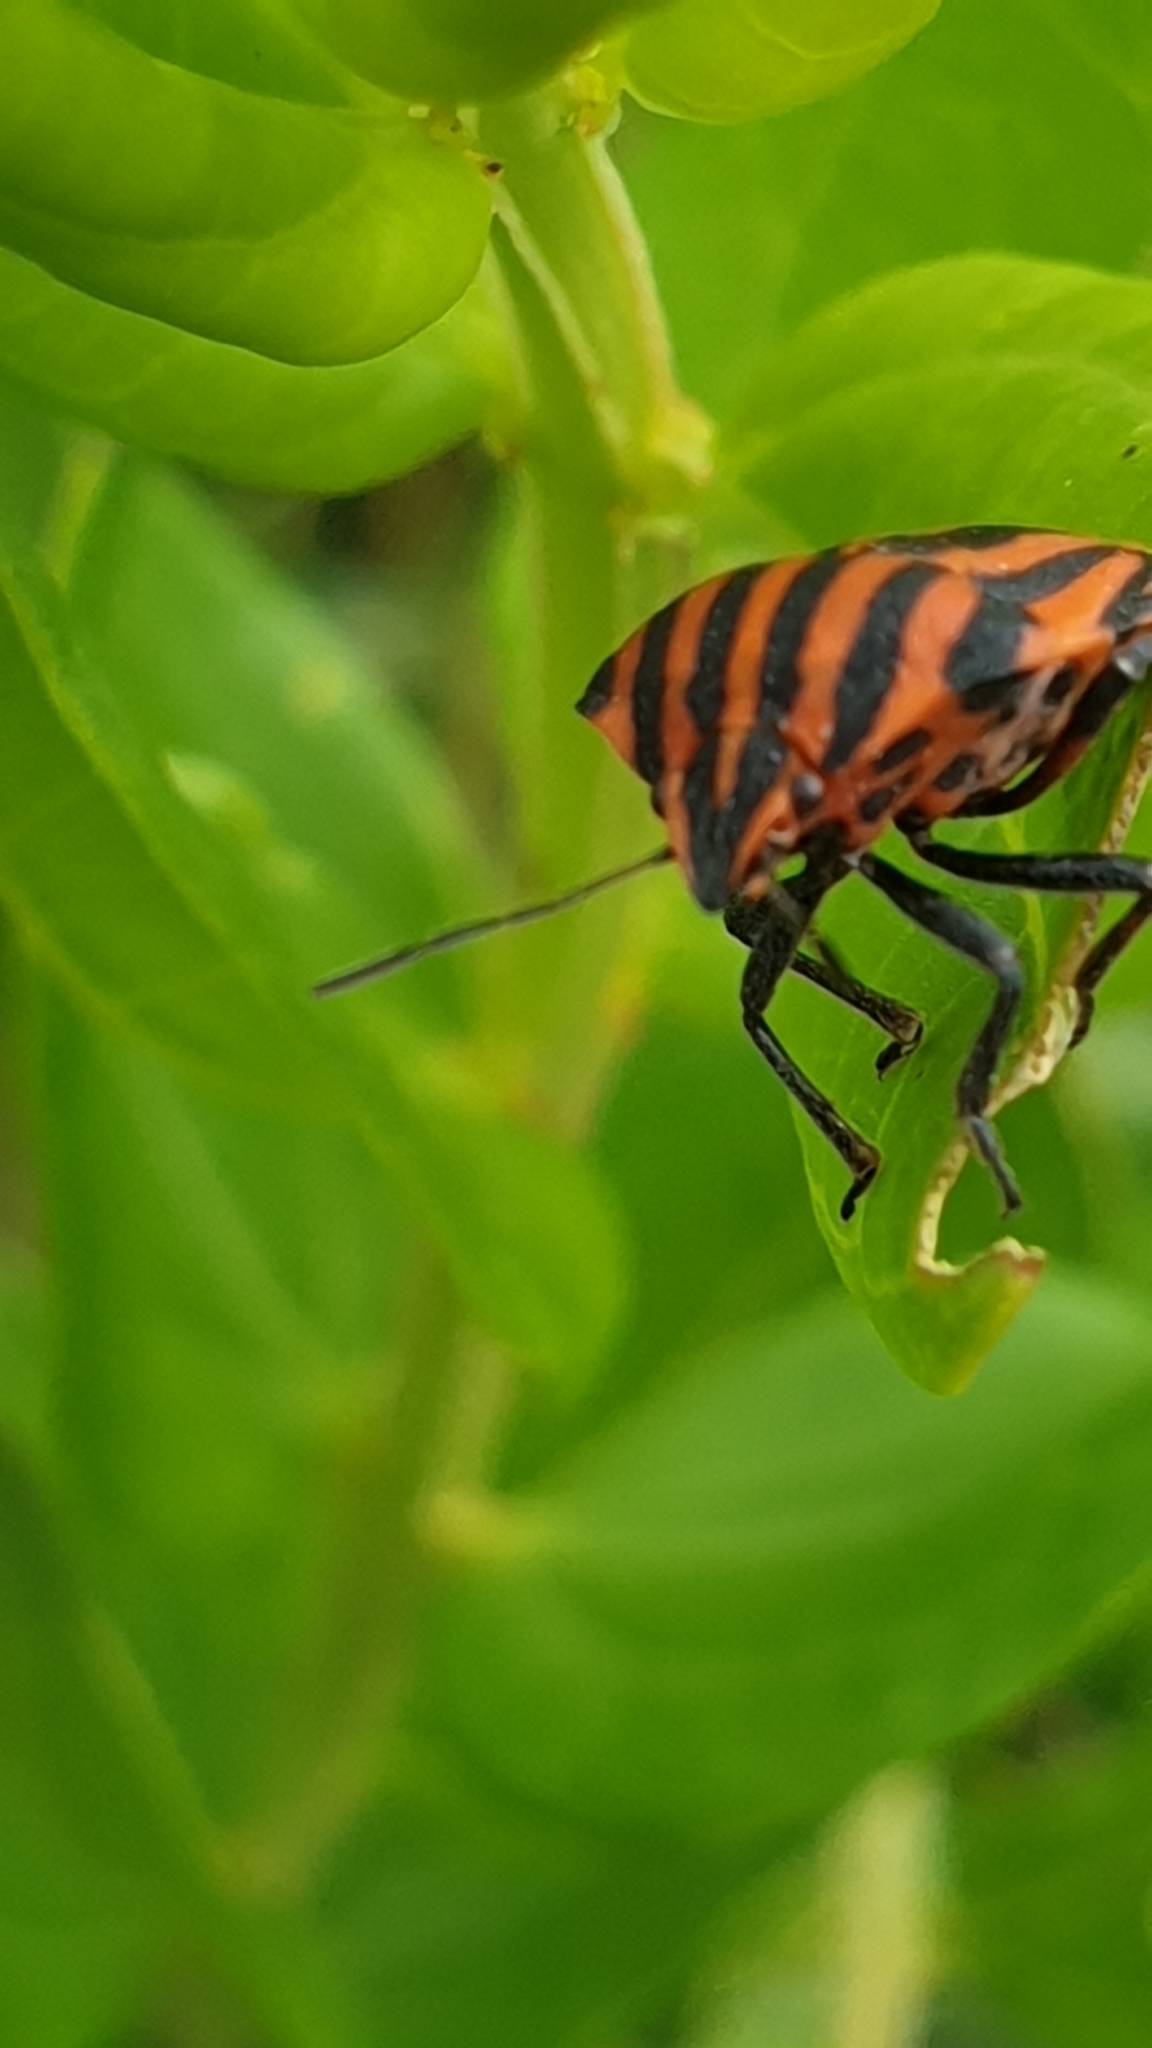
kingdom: Animalia
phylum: Arthropoda
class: Insecta
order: Hemiptera
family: Pentatomidae
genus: Graphosoma
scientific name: Graphosoma italicum
